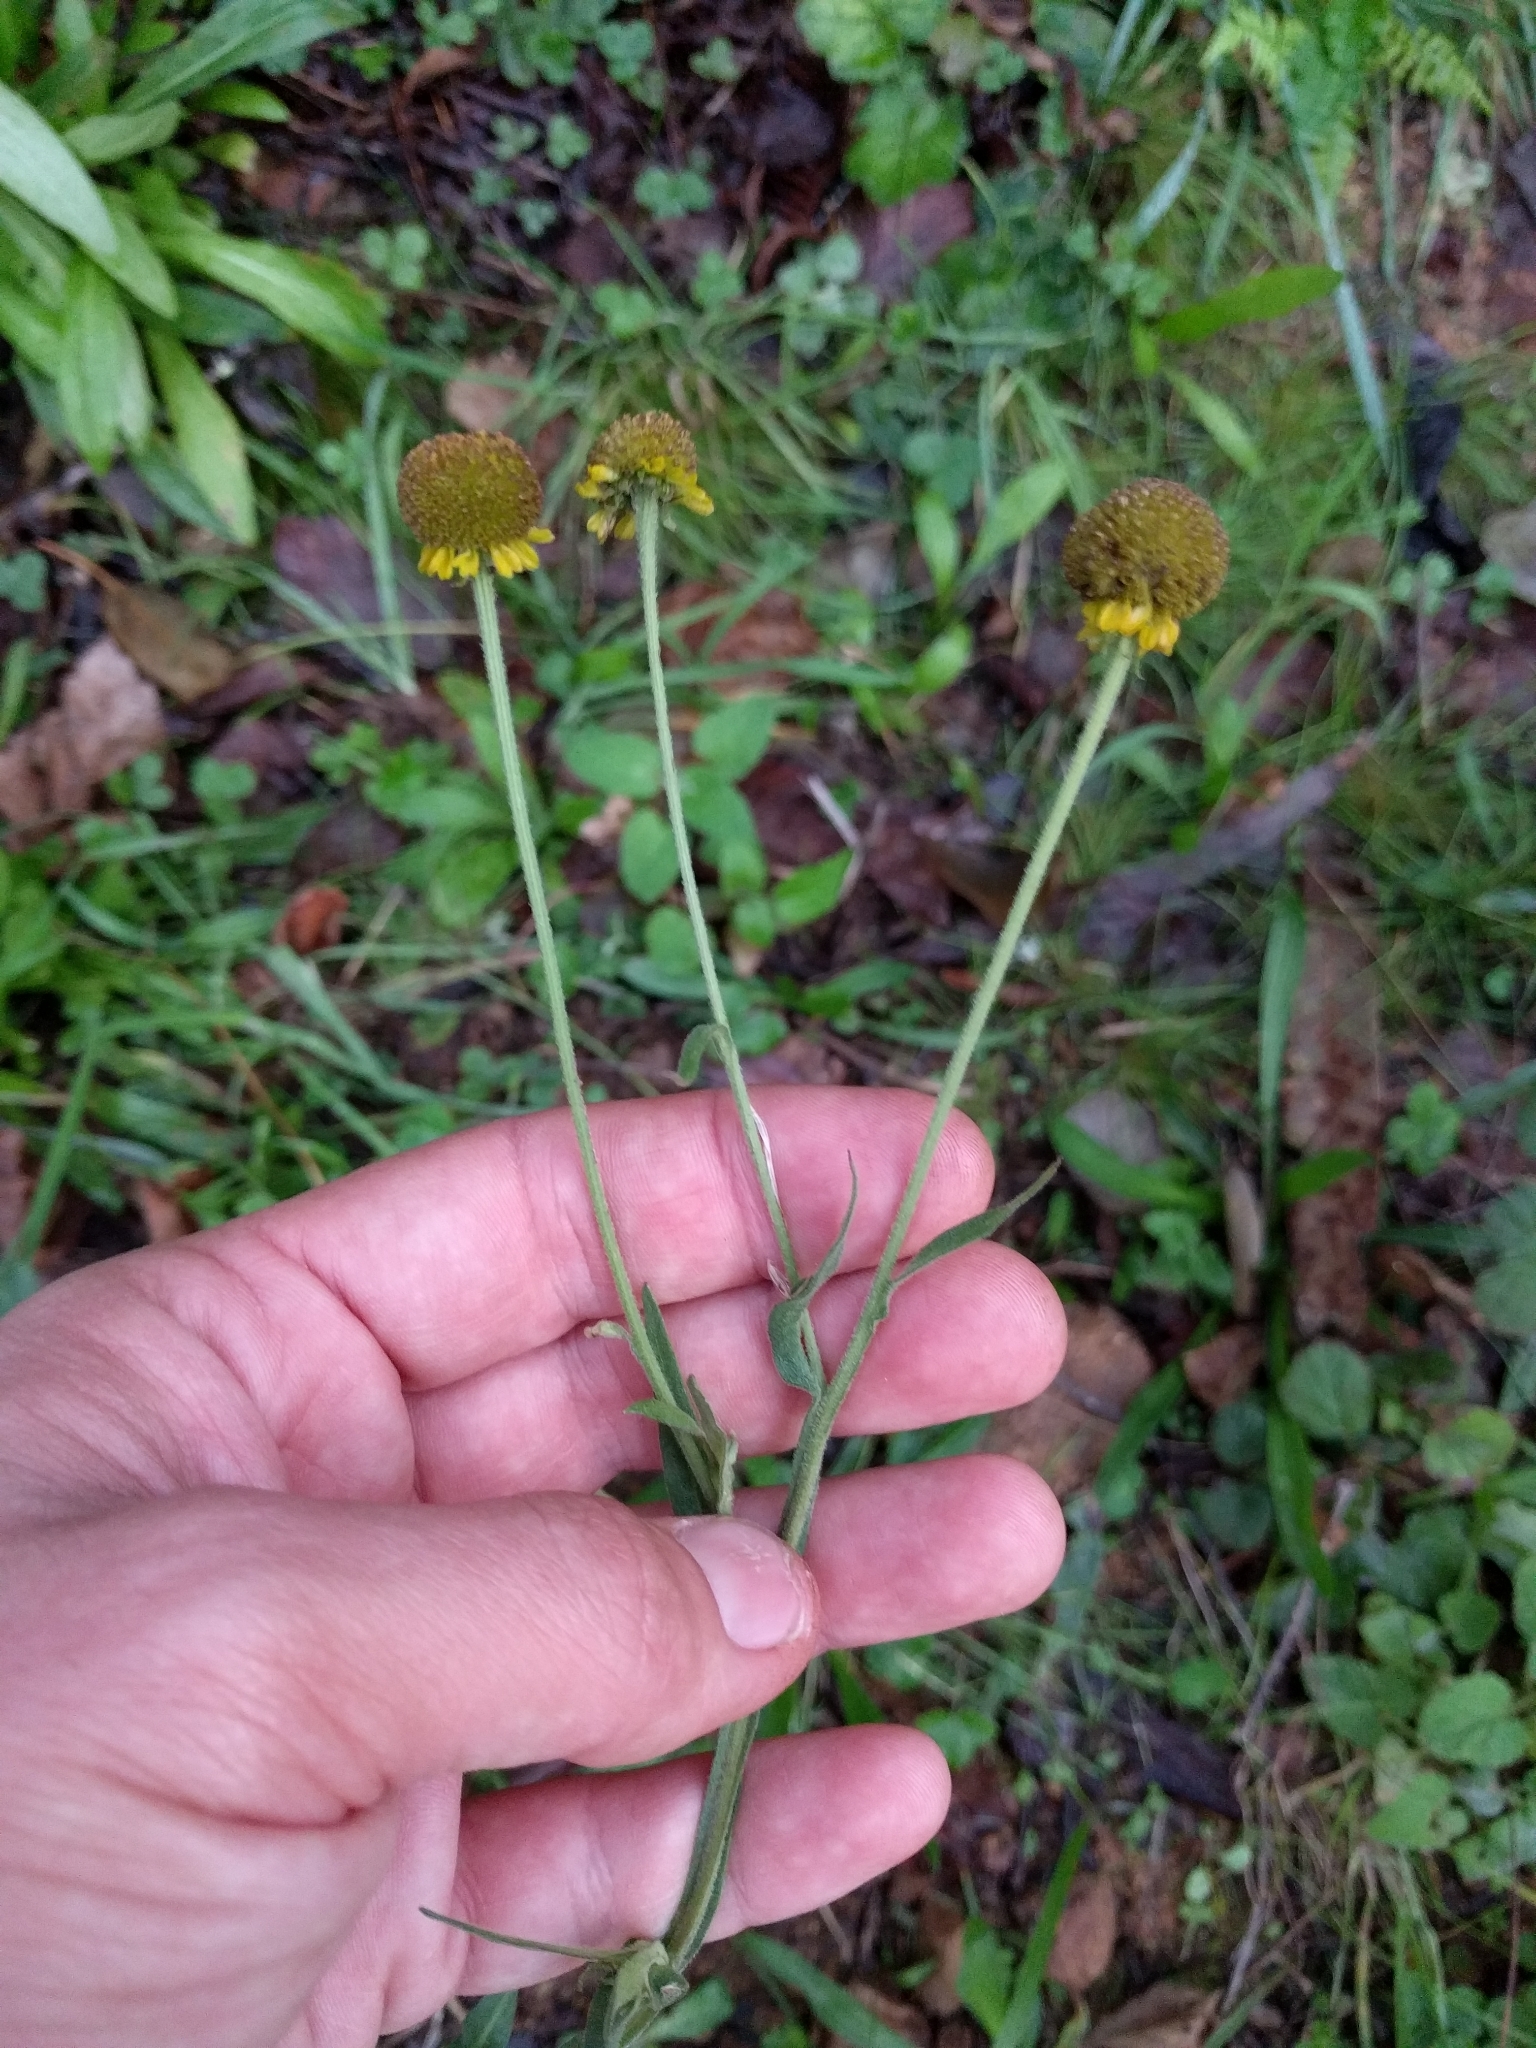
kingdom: Plantae
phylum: Tracheophyta
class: Magnoliopsida
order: Asterales
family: Asteraceae
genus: Helenium
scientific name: Helenium puberulum
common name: Sneezewort
